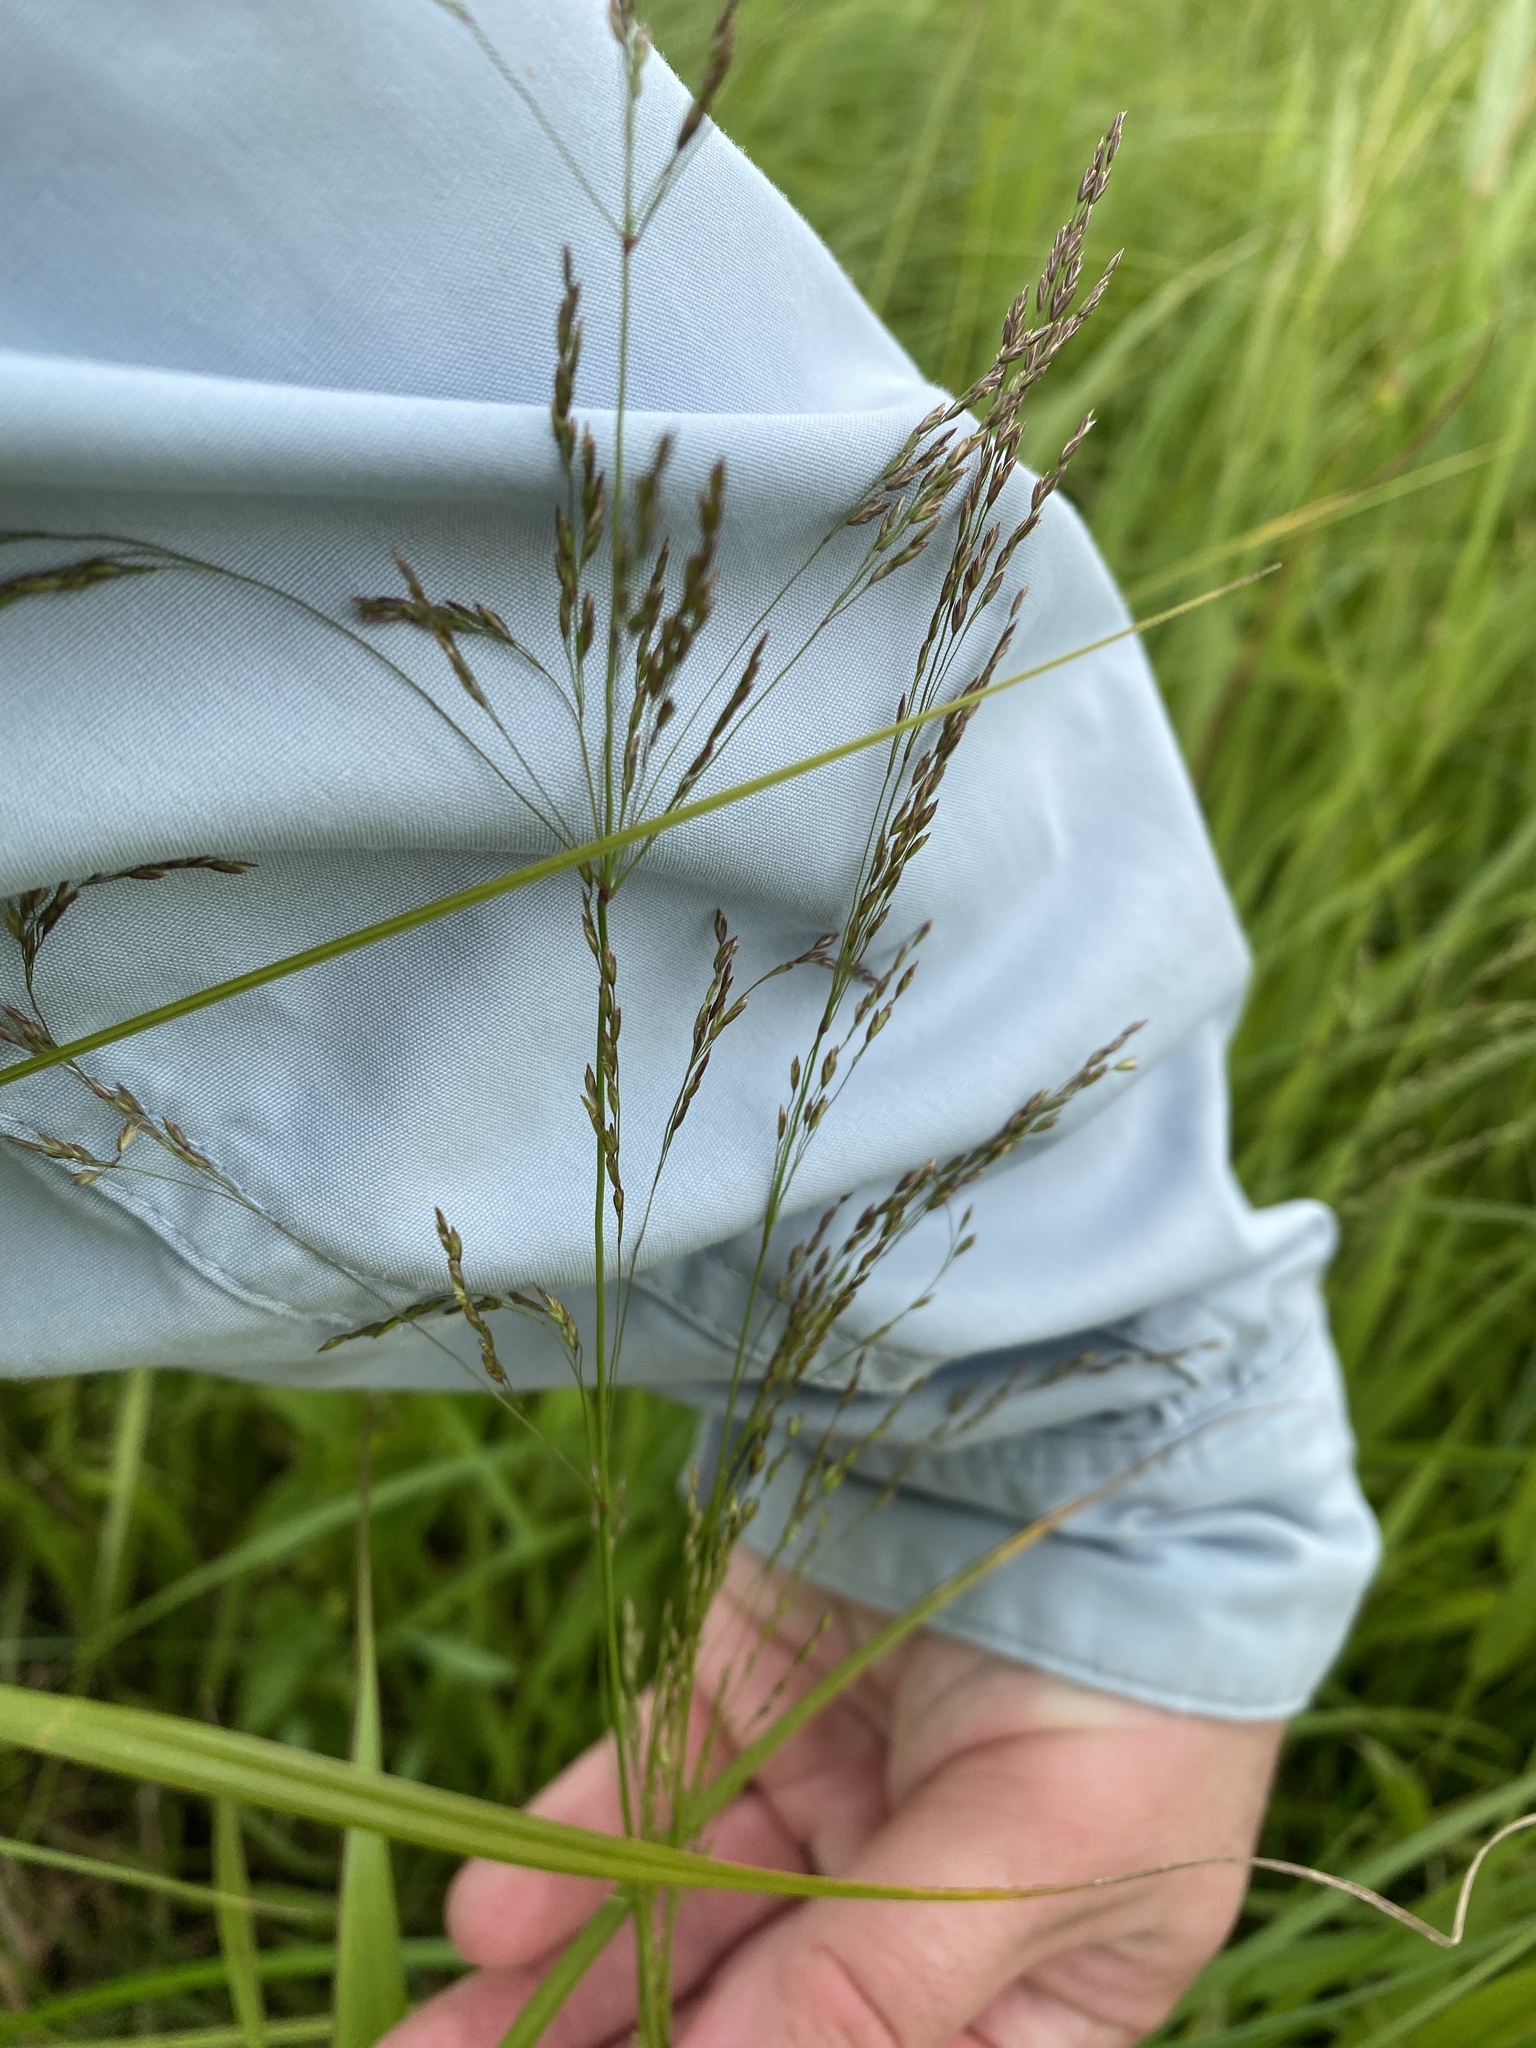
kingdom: Plantae
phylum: Tracheophyta
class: Liliopsida
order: Poales
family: Poaceae
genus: Agrostis
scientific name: Agrostis gigantea
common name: Black bent
